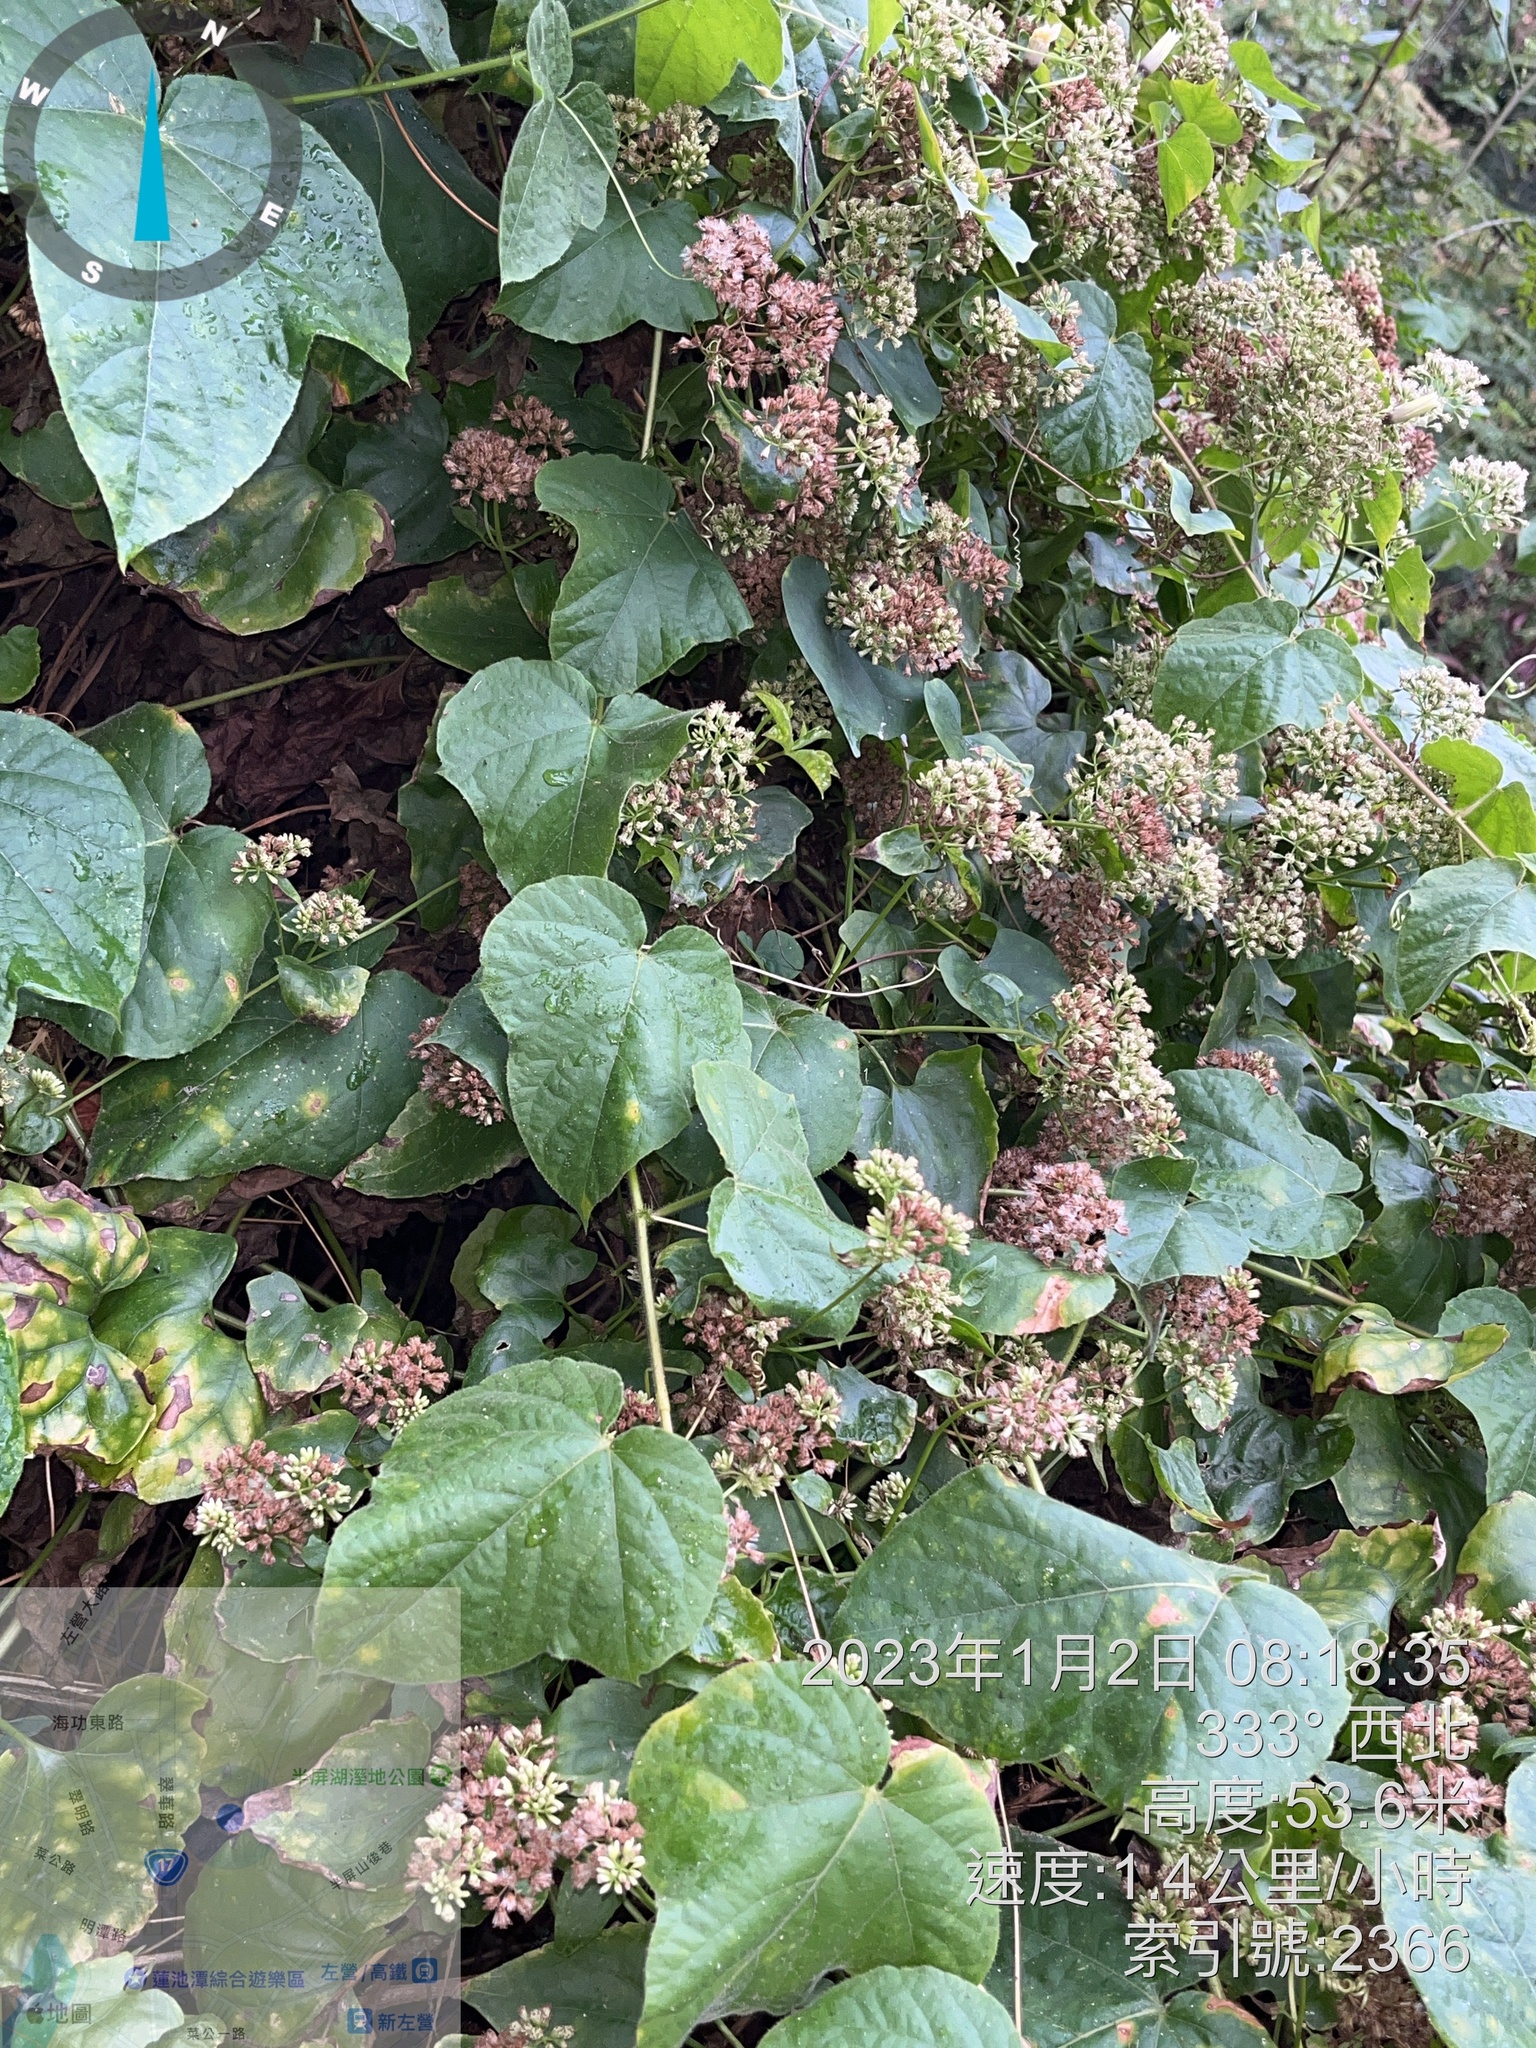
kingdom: Plantae
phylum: Tracheophyta
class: Magnoliopsida
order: Asterales
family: Asteraceae
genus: Mikania
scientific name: Mikania micrantha
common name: Mile-a-minute
